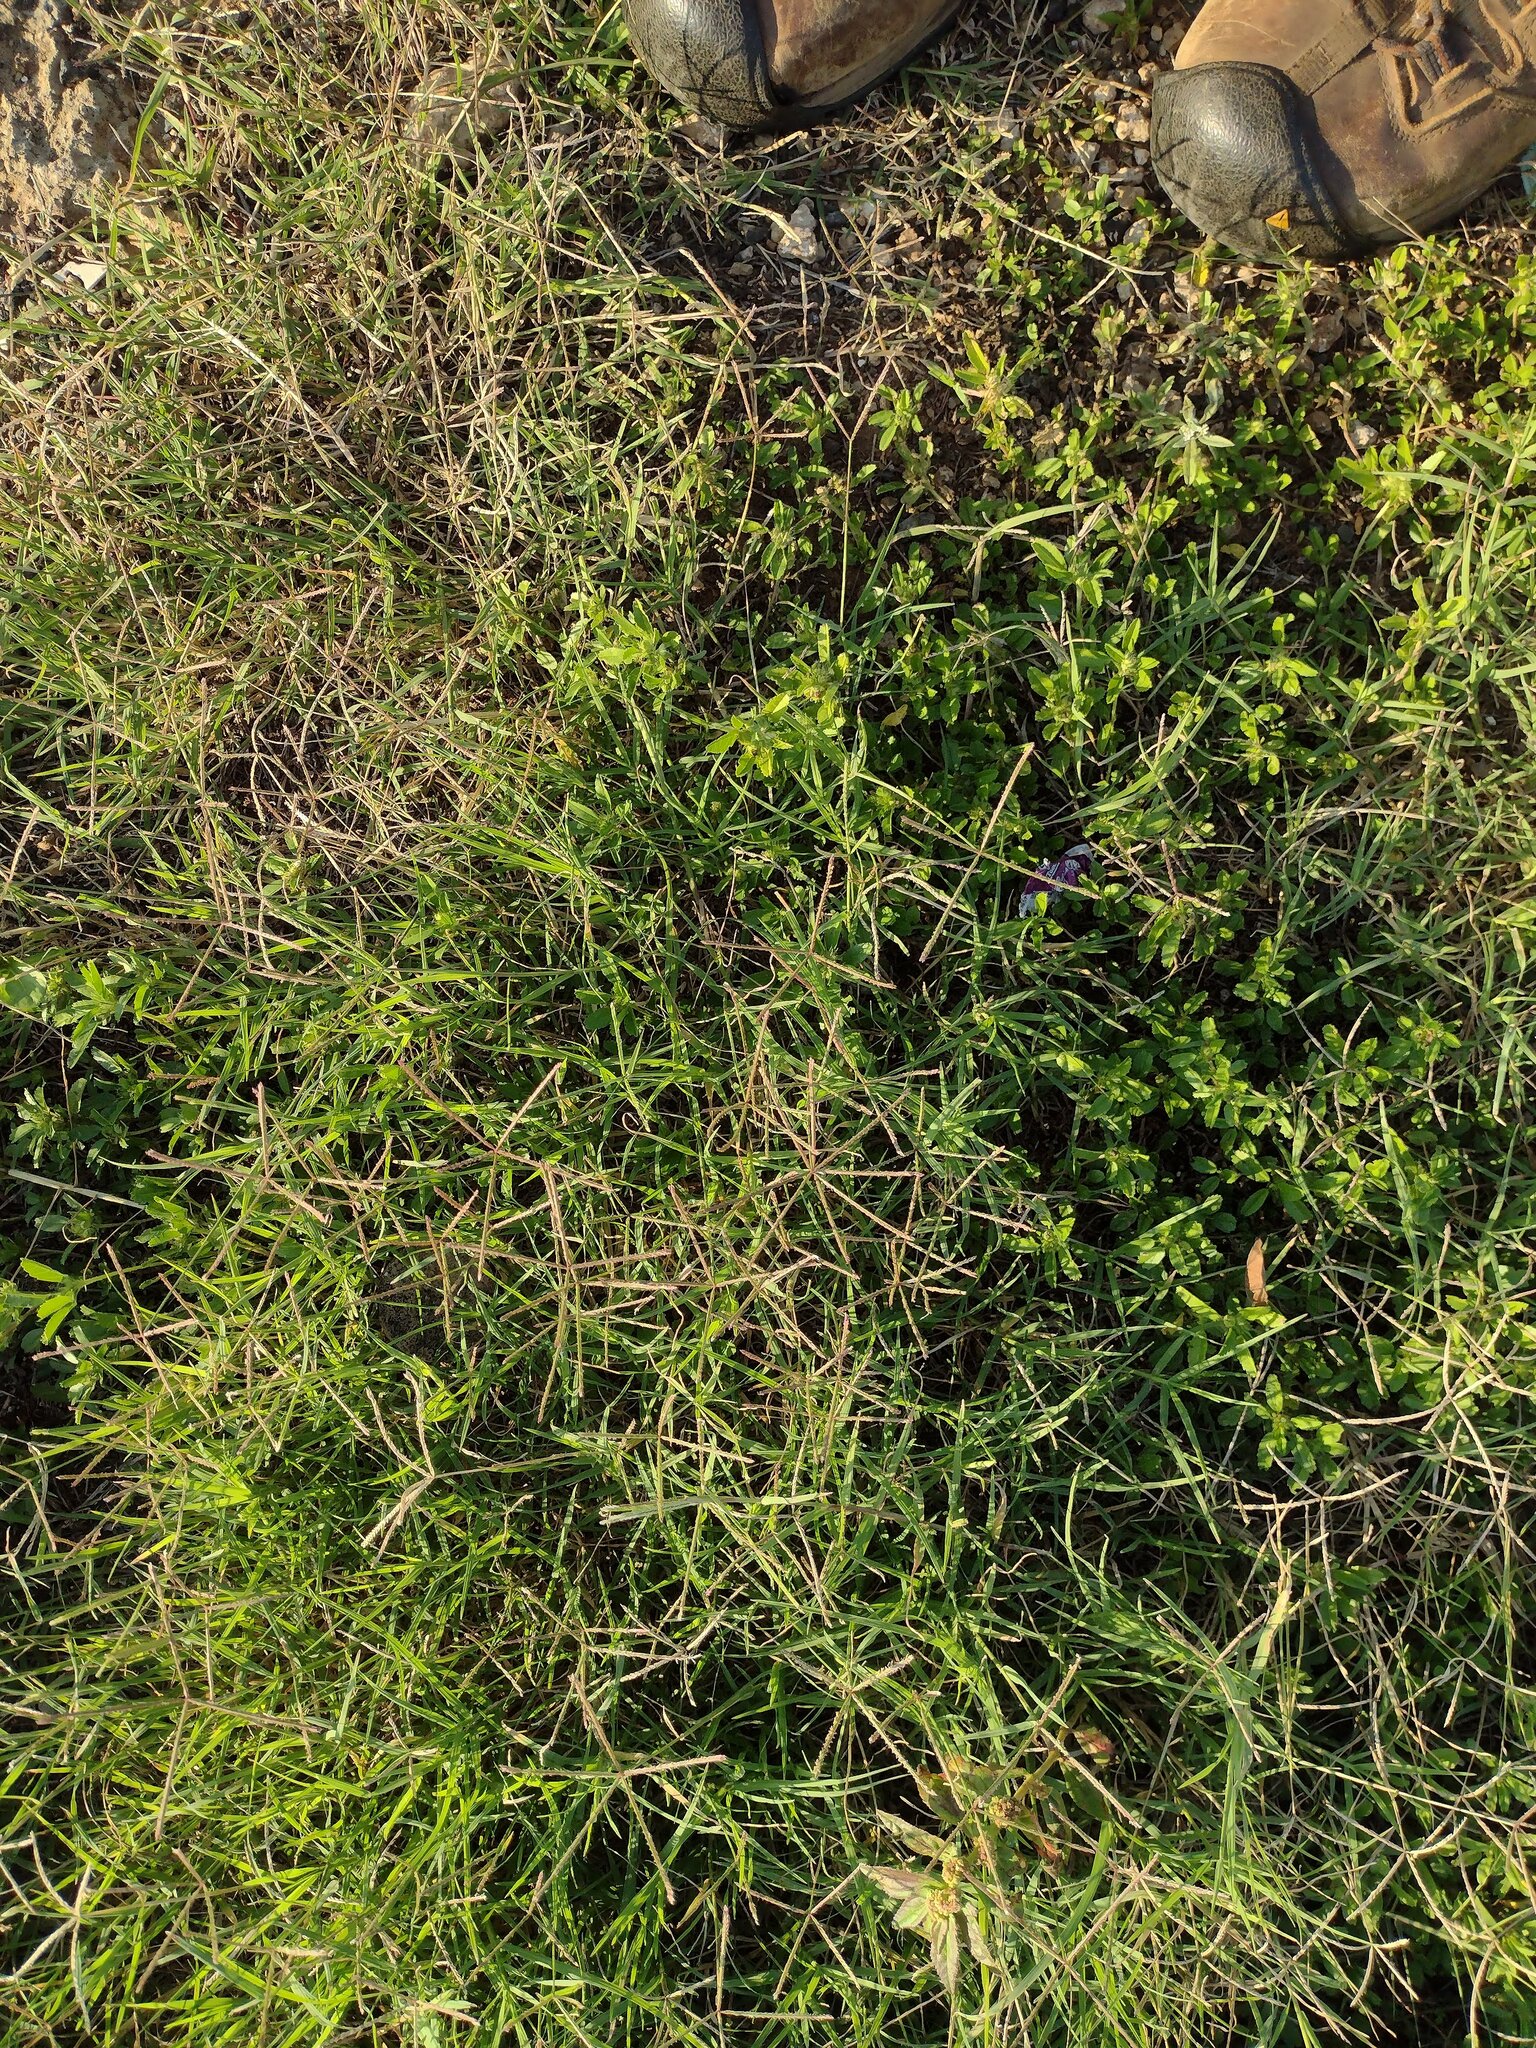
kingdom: Plantae
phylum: Tracheophyta
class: Liliopsida
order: Poales
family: Poaceae
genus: Cynodon
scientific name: Cynodon dactylon
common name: Bermuda grass
